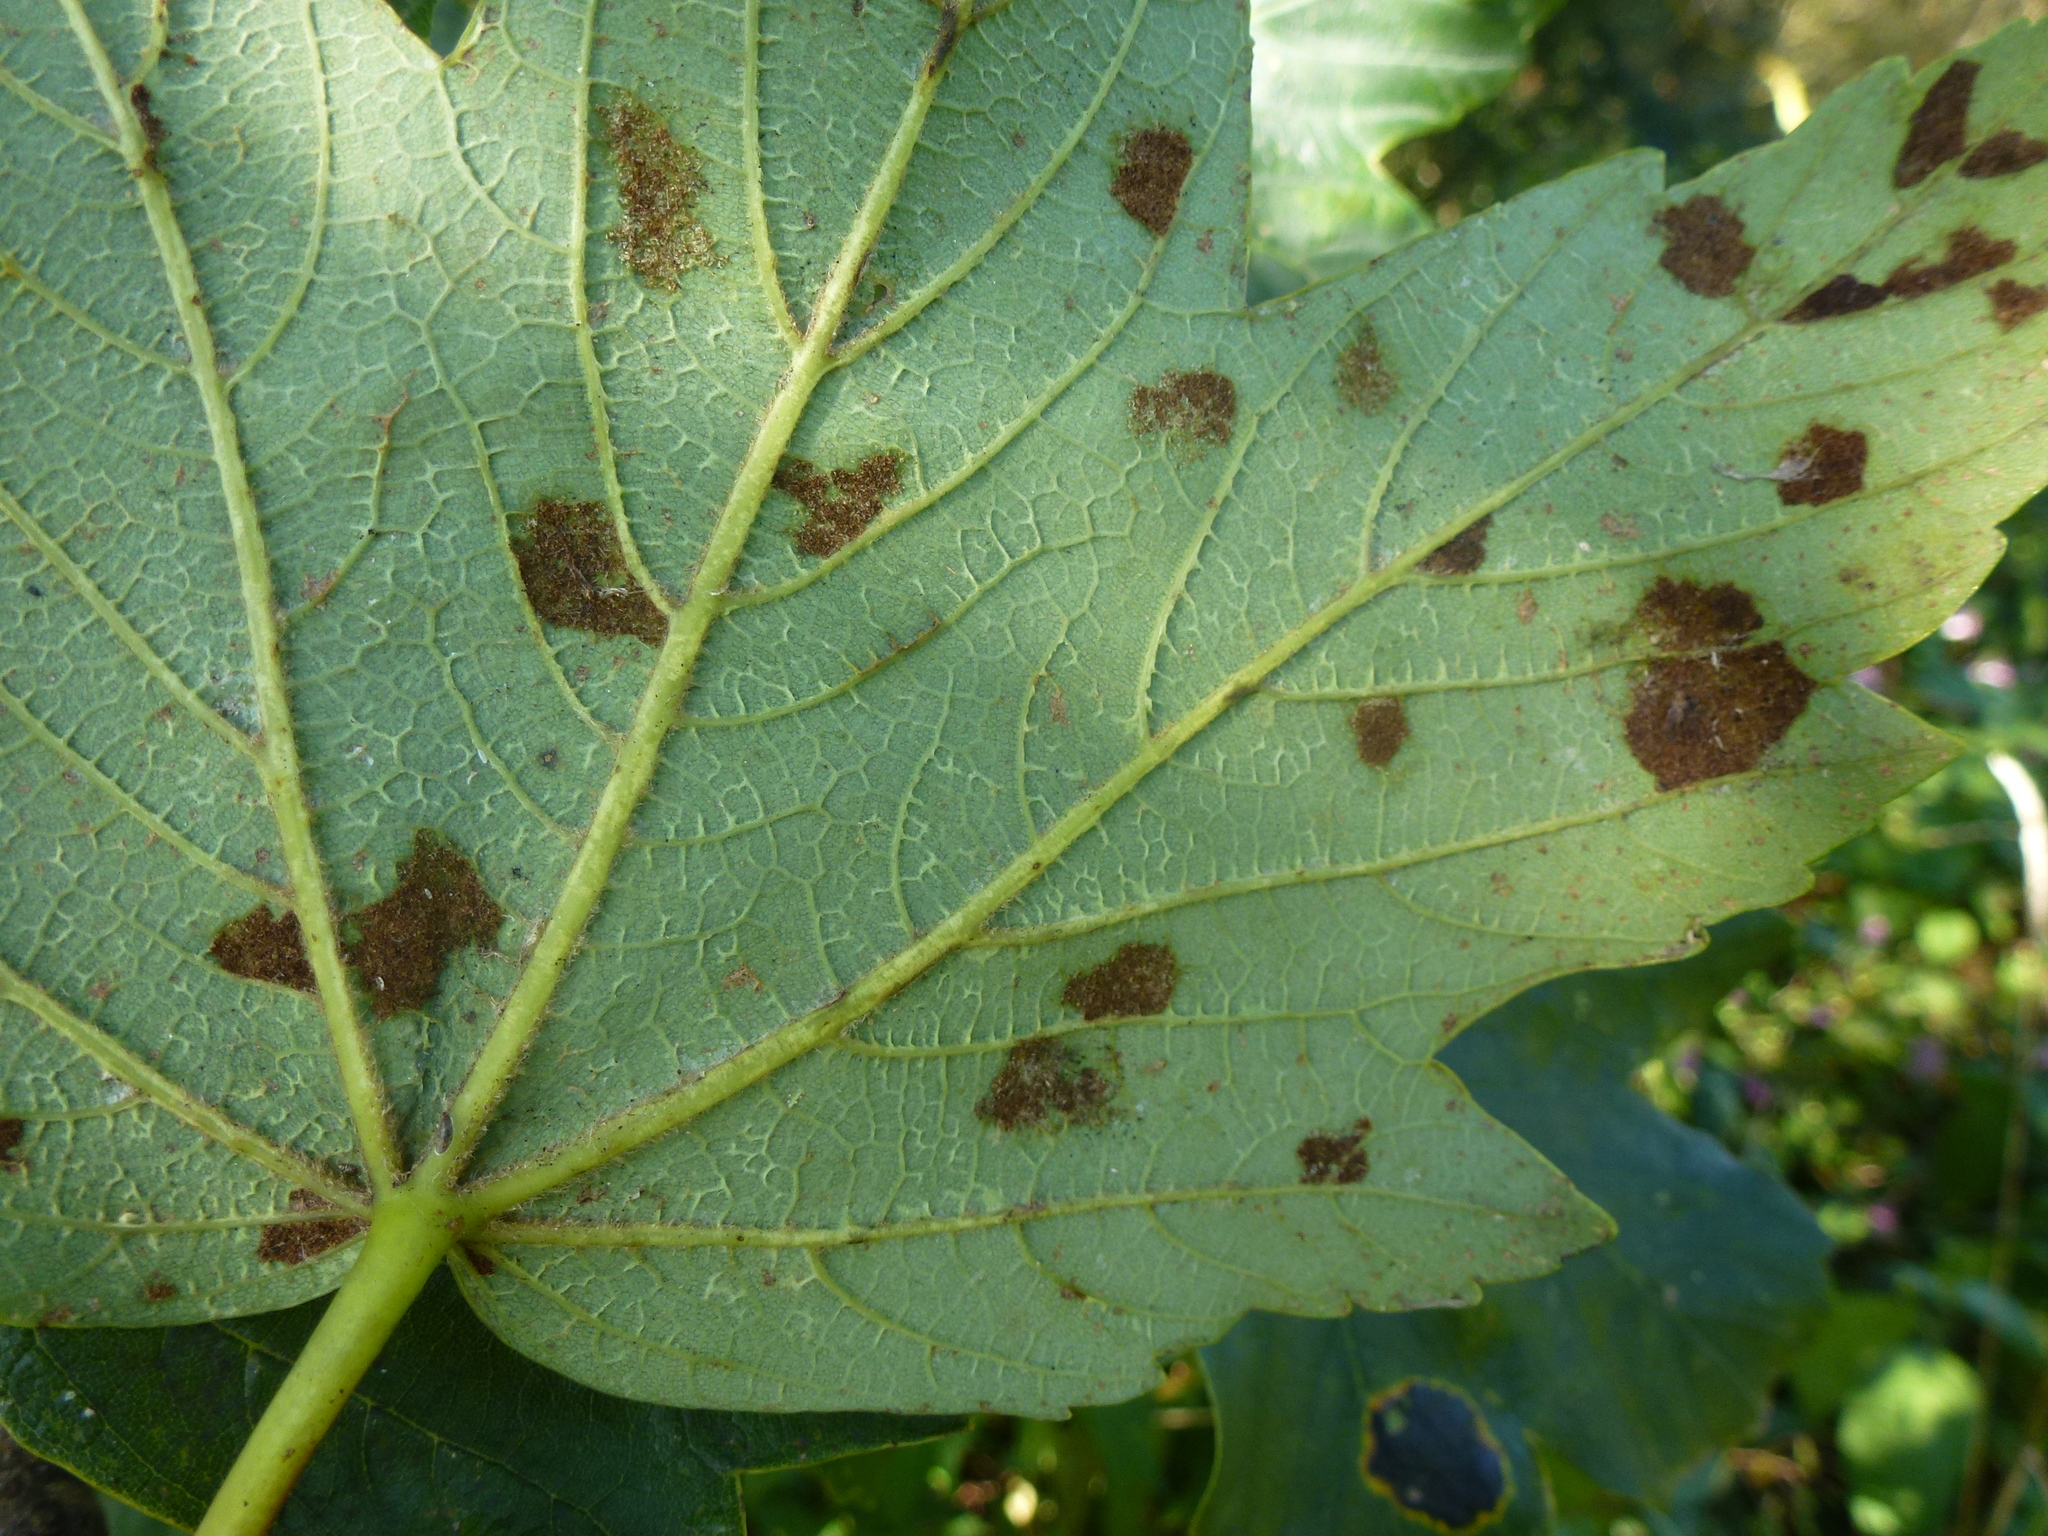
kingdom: Animalia
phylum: Arthropoda
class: Arachnida
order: Trombidiformes
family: Eriophyidae
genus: Aceria
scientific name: Aceria pseudoplatani
